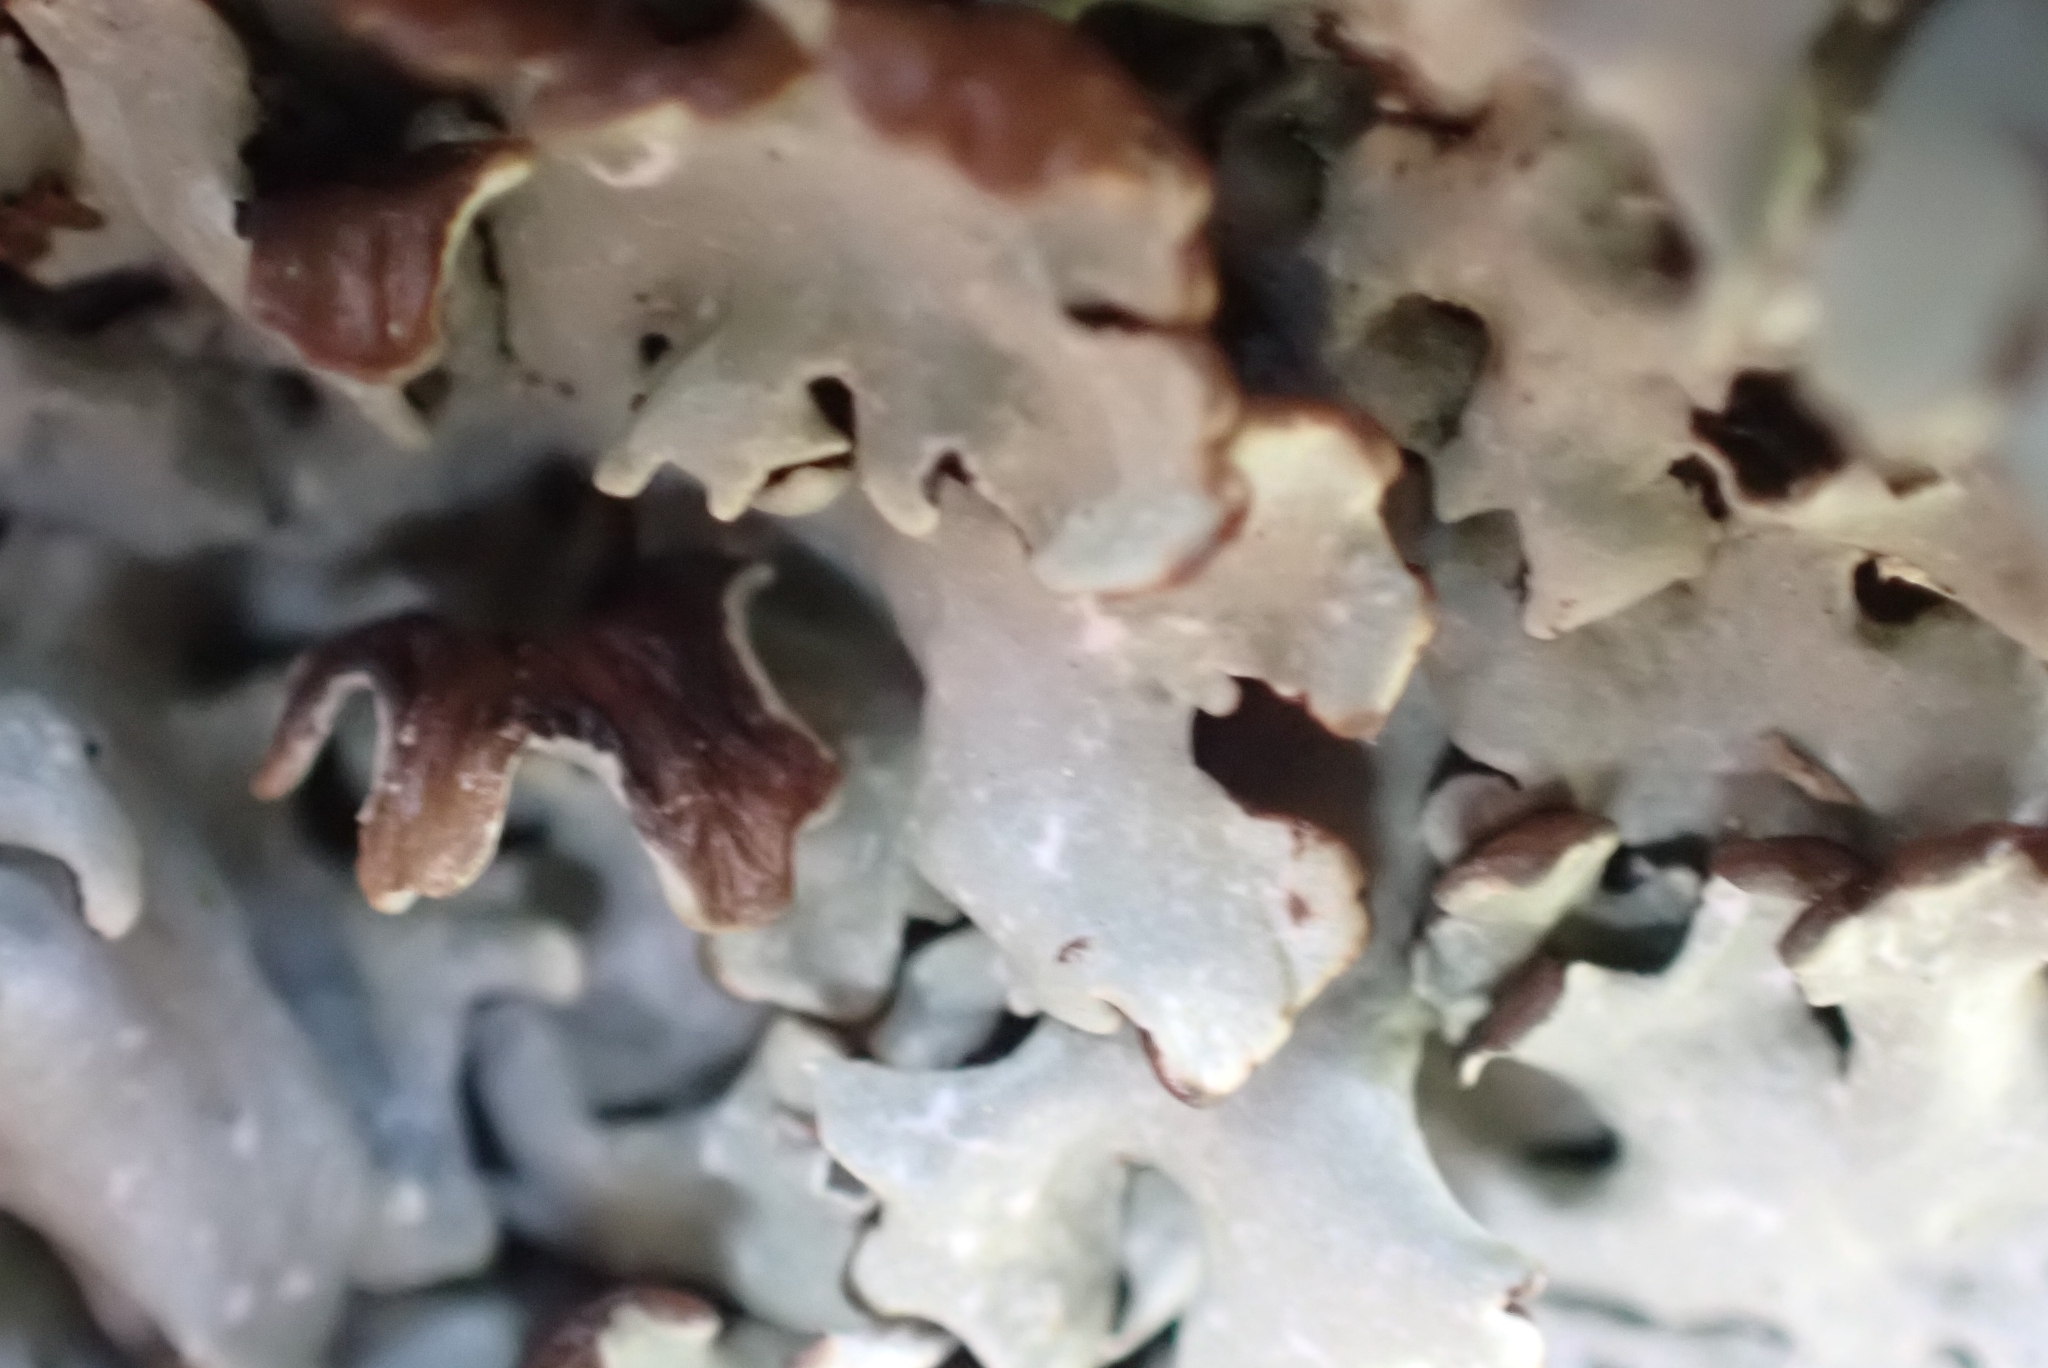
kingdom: Fungi
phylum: Ascomycota
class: Lecanoromycetes
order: Lecanorales
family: Parmeliaceae
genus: Hypogymnia
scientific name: Hypogymnia physodes
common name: Dark crottle
